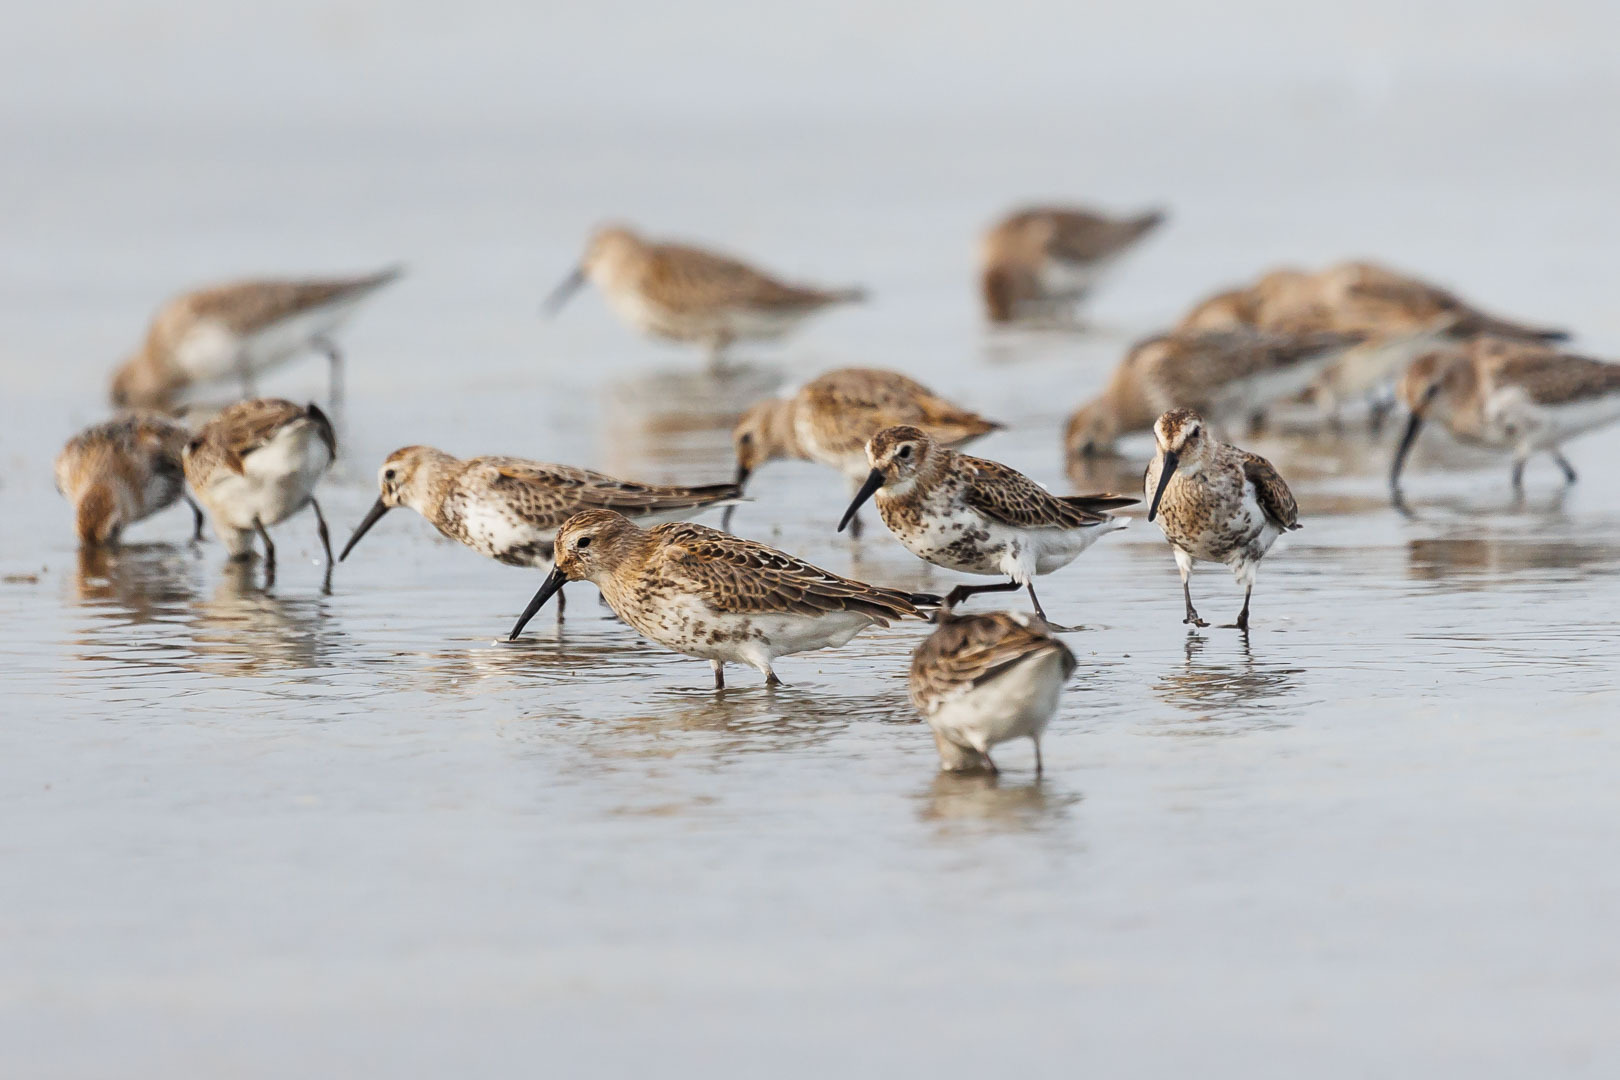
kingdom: Animalia
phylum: Chordata
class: Aves
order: Charadriiformes
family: Scolopacidae
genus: Calidris
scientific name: Calidris alpina
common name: Dunlin
